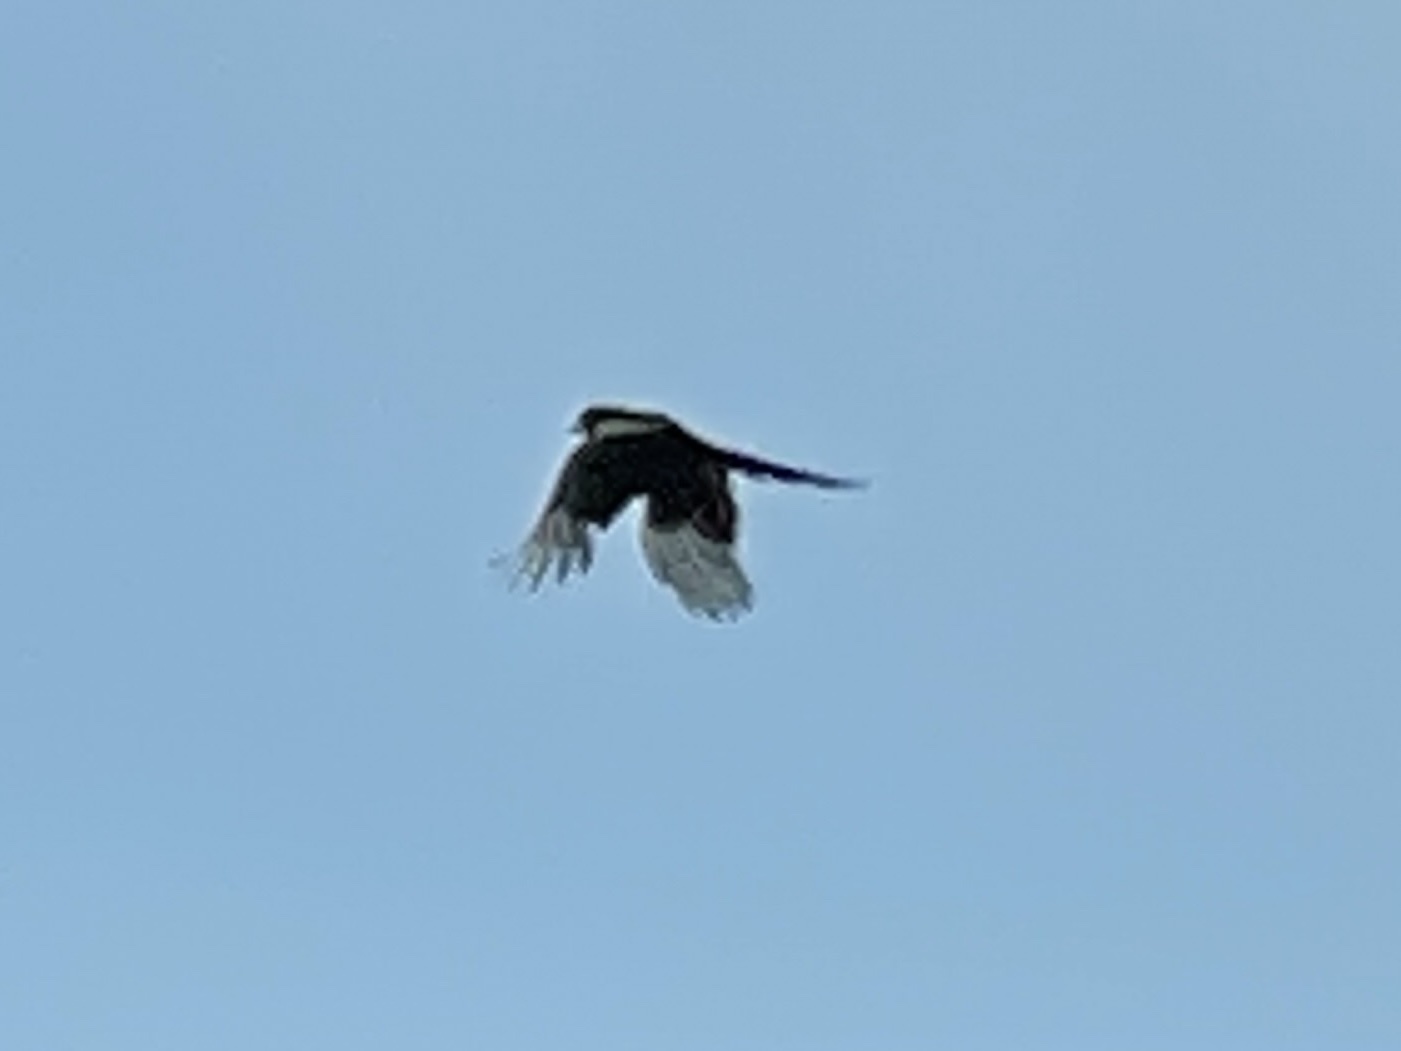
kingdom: Animalia
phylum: Chordata
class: Aves
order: Passeriformes
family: Corvidae
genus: Pica
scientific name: Pica hudsonia
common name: Black-billed magpie
